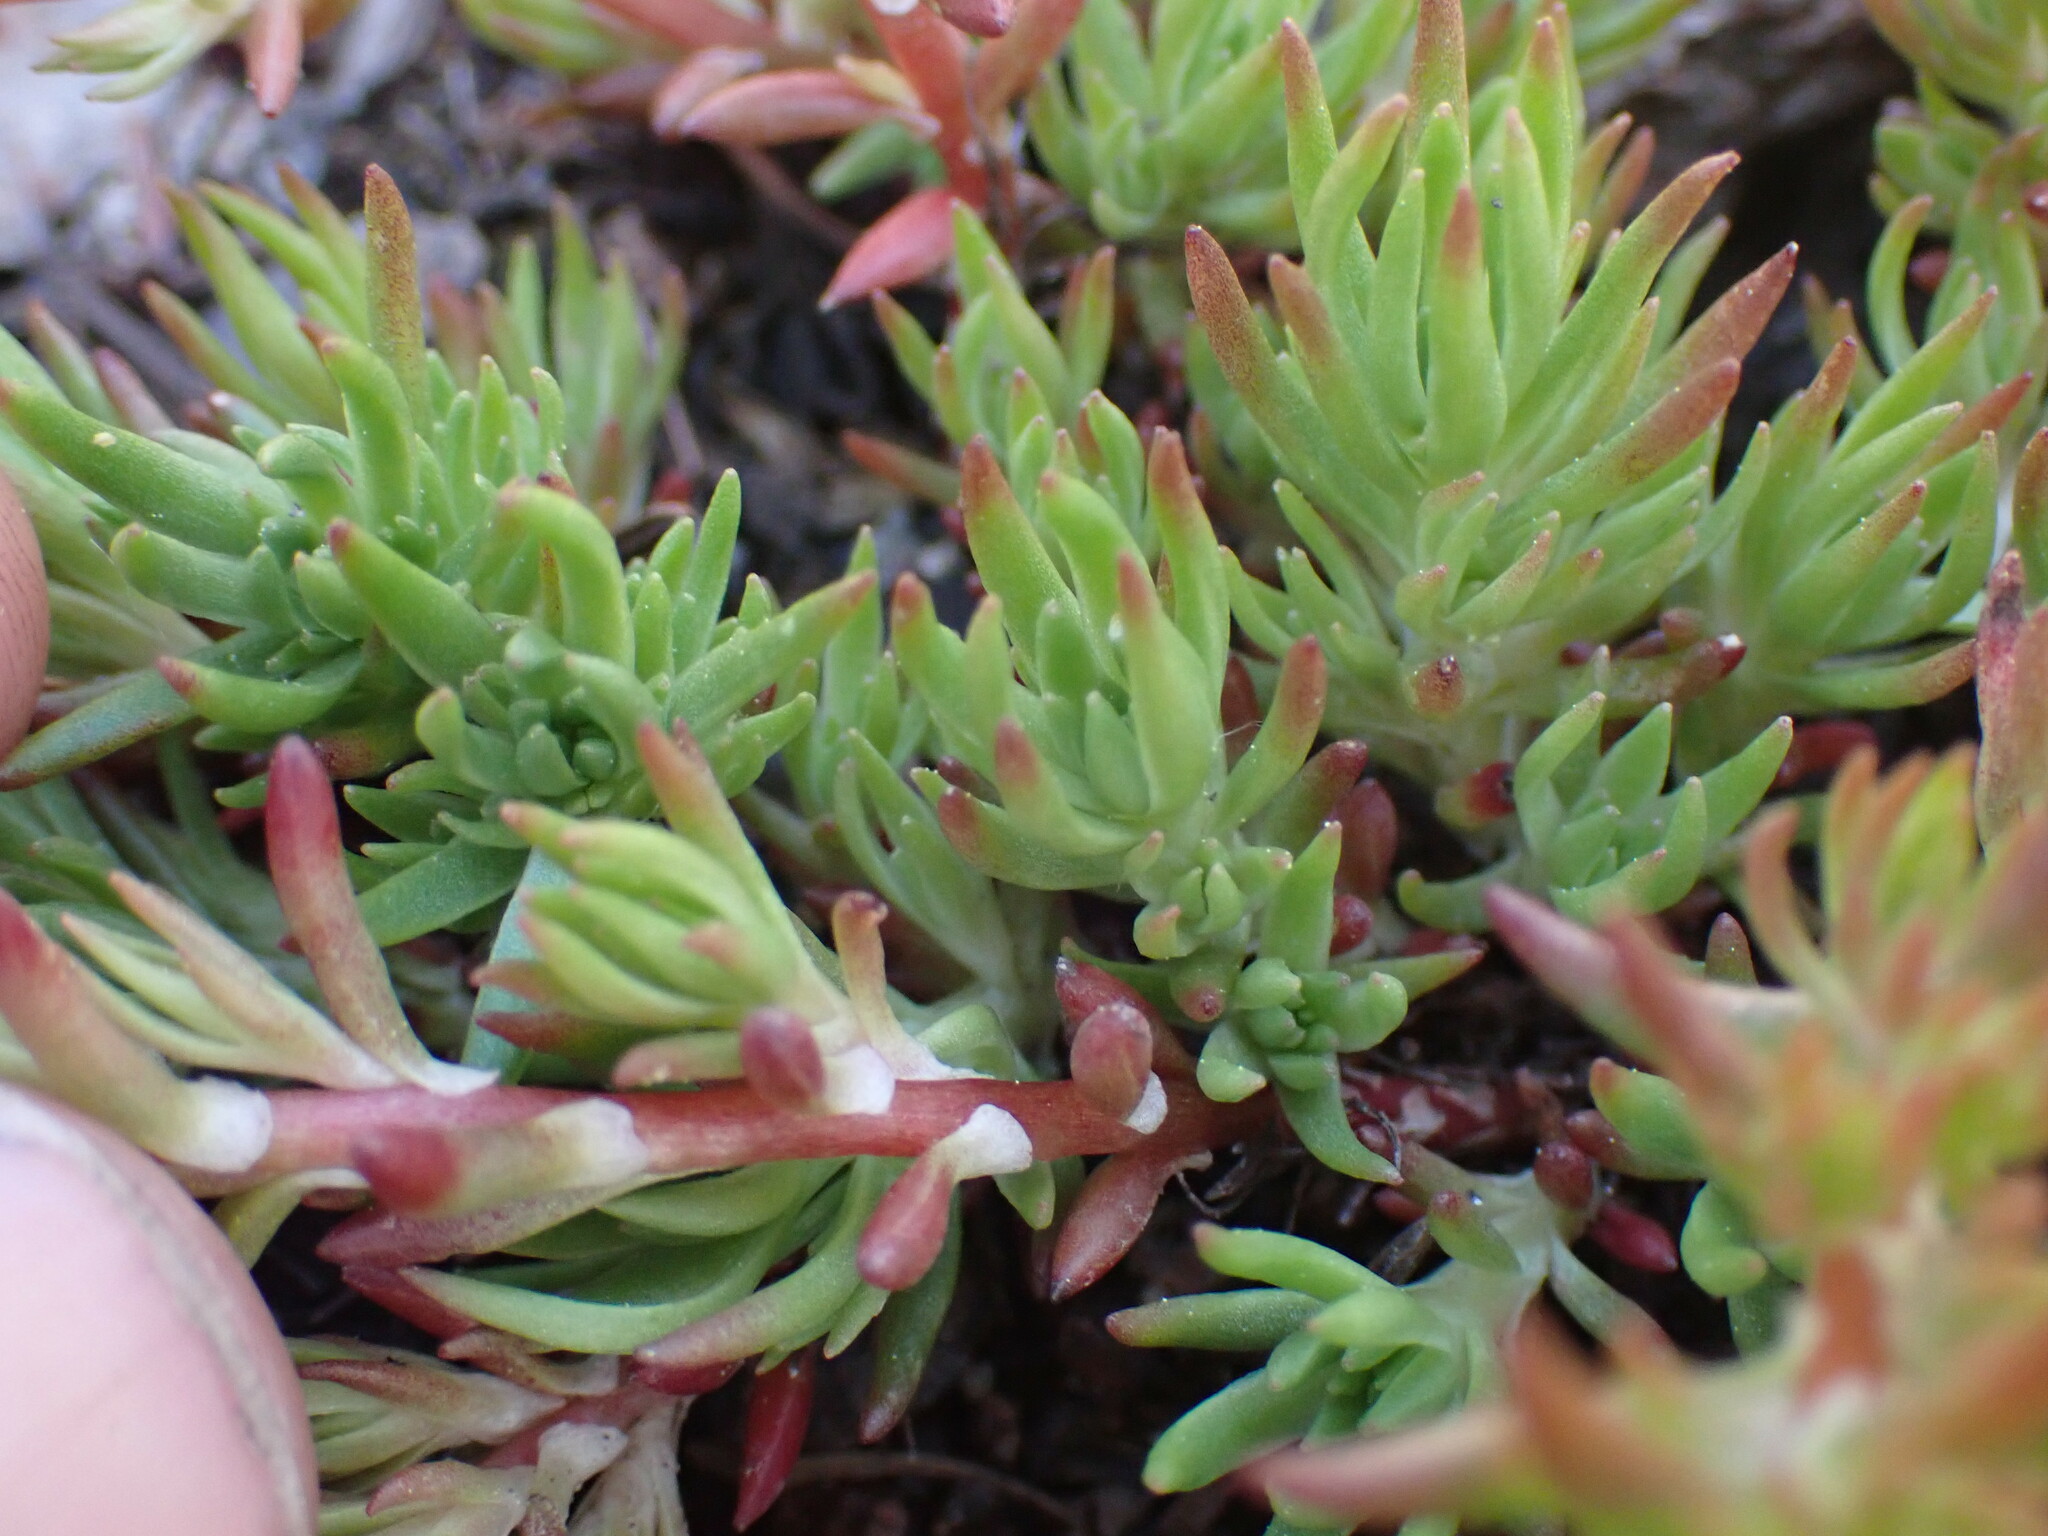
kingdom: Plantae
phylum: Tracheophyta
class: Magnoliopsida
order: Saxifragales
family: Crassulaceae
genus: Sedum
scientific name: Sedum stenopetalum
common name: Narrow-petaled stonecrop
